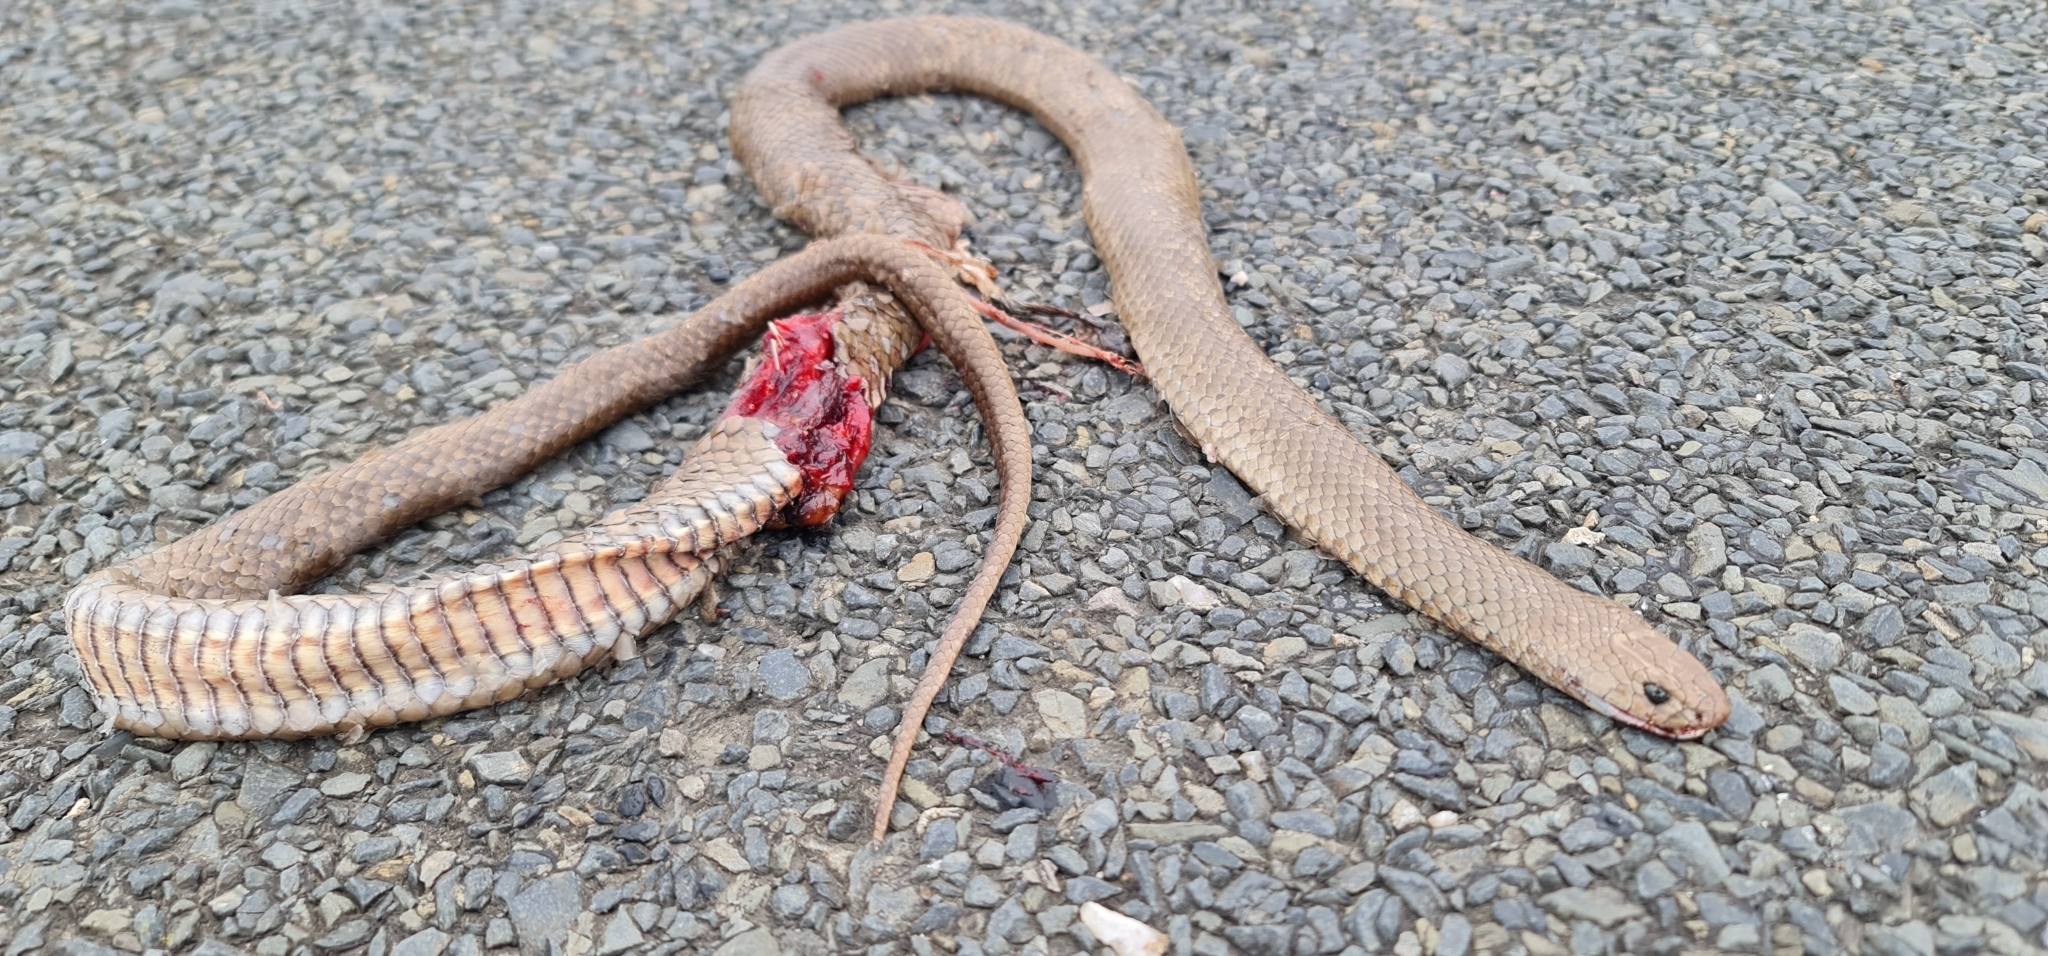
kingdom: Animalia
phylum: Chordata
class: Squamata
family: Elapidae
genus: Pseudonaja
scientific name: Pseudonaja textilis
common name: Eastern brown snake
